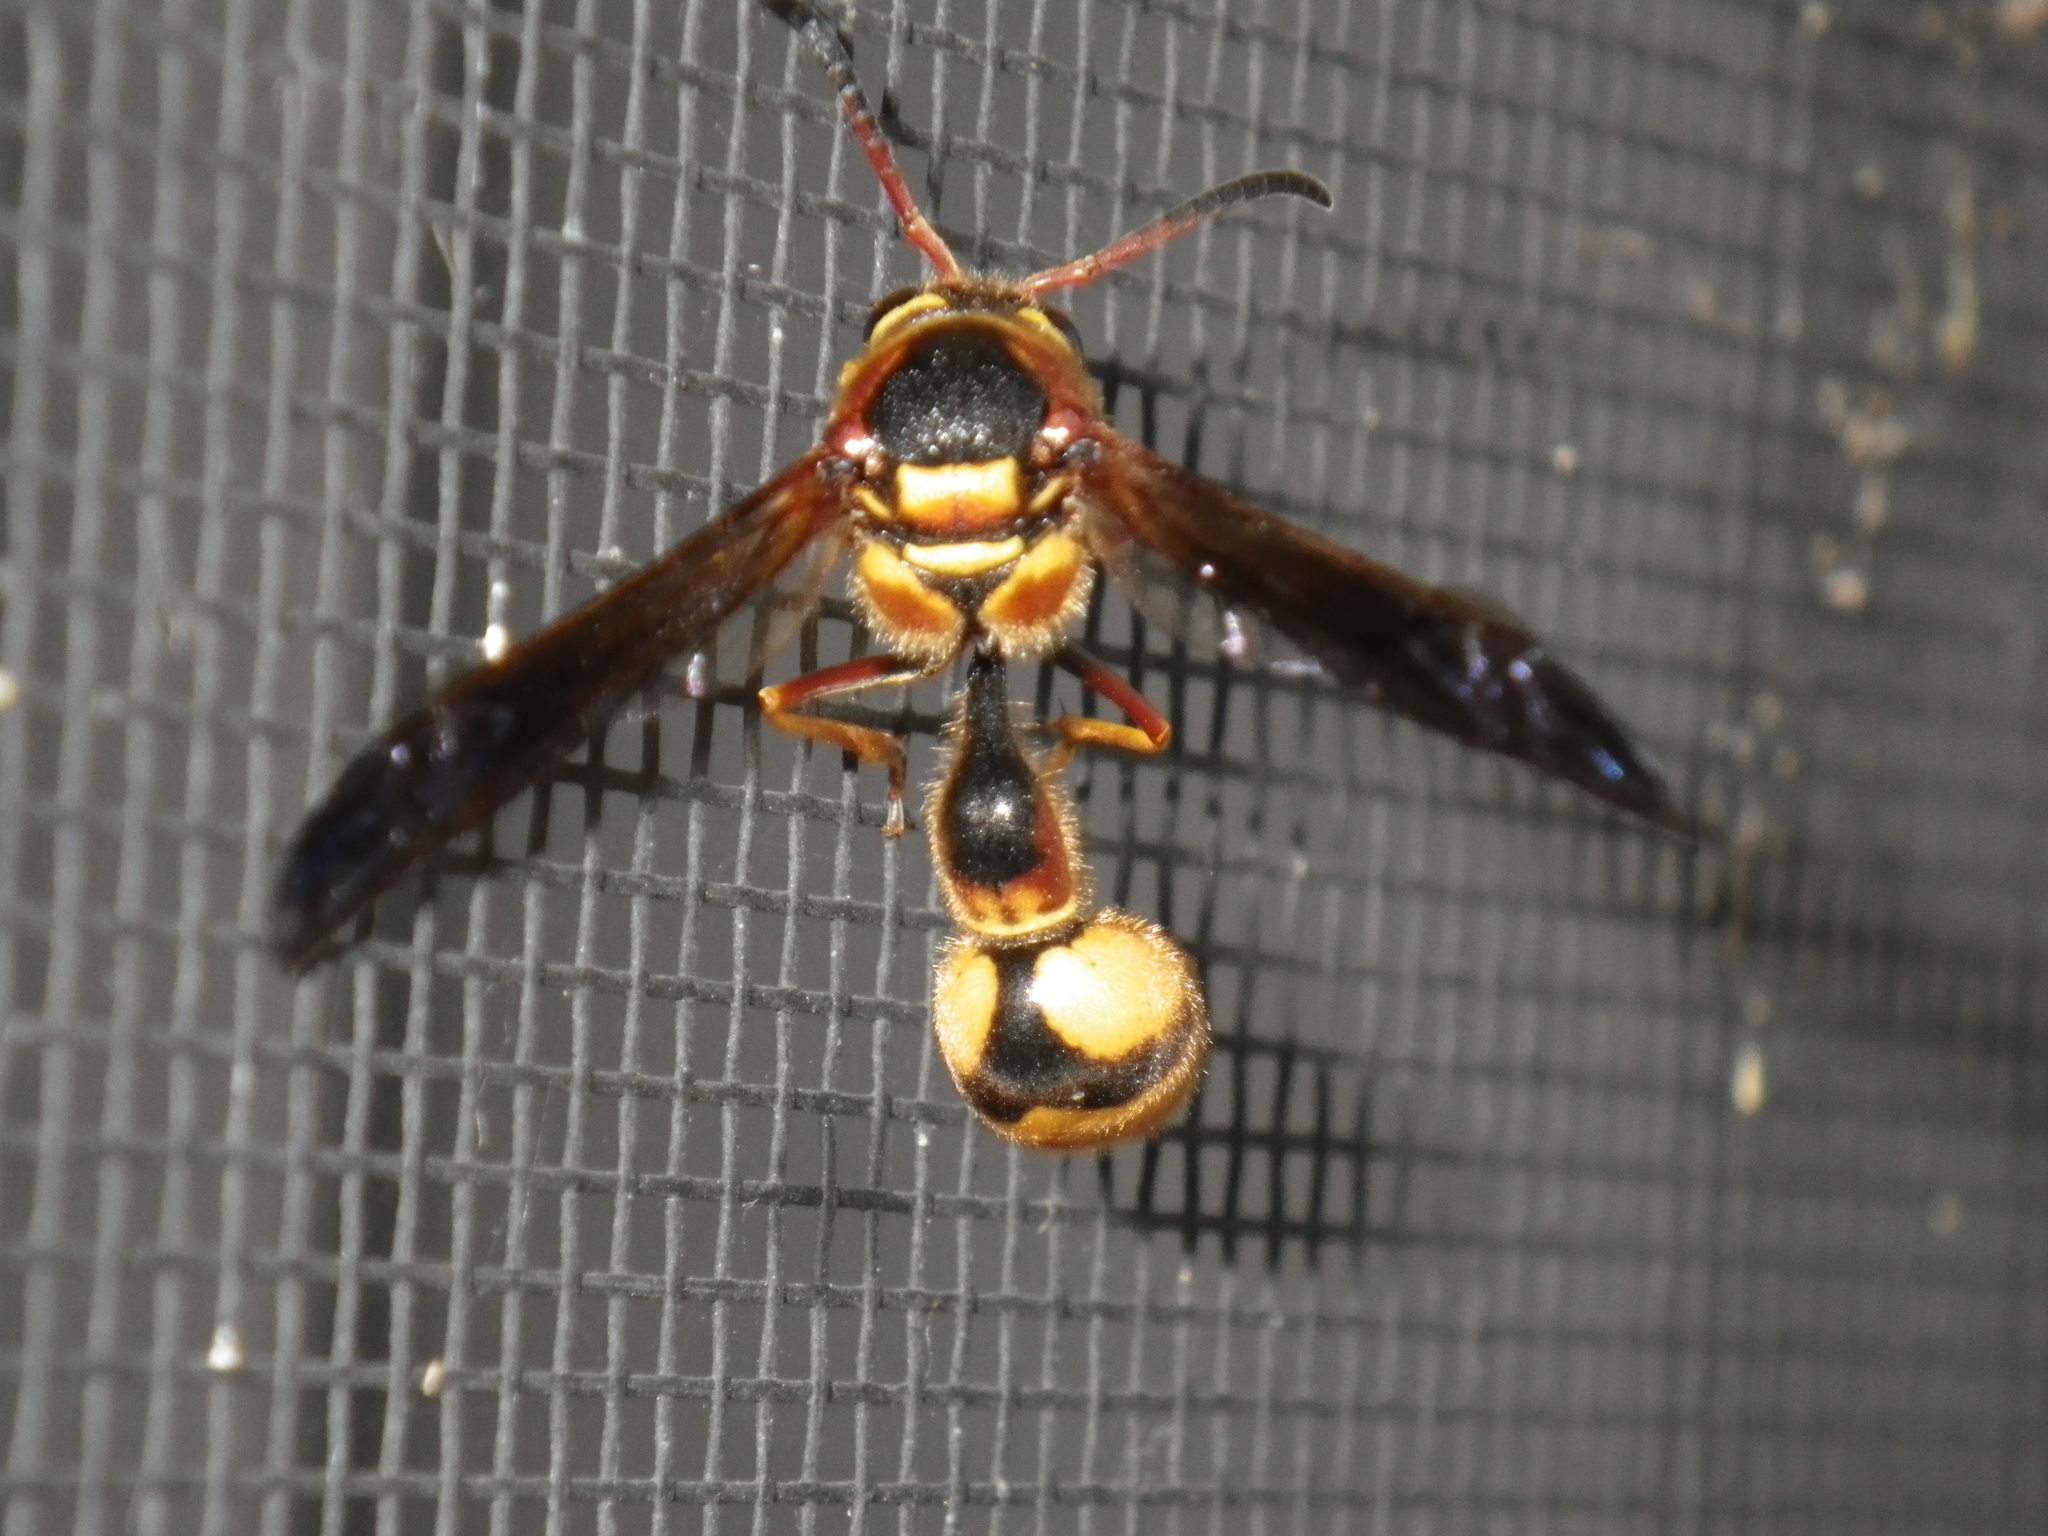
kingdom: Animalia
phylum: Arthropoda
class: Insecta
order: Hymenoptera
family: Vespidae
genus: Eumenes
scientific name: Eumenes bollii
